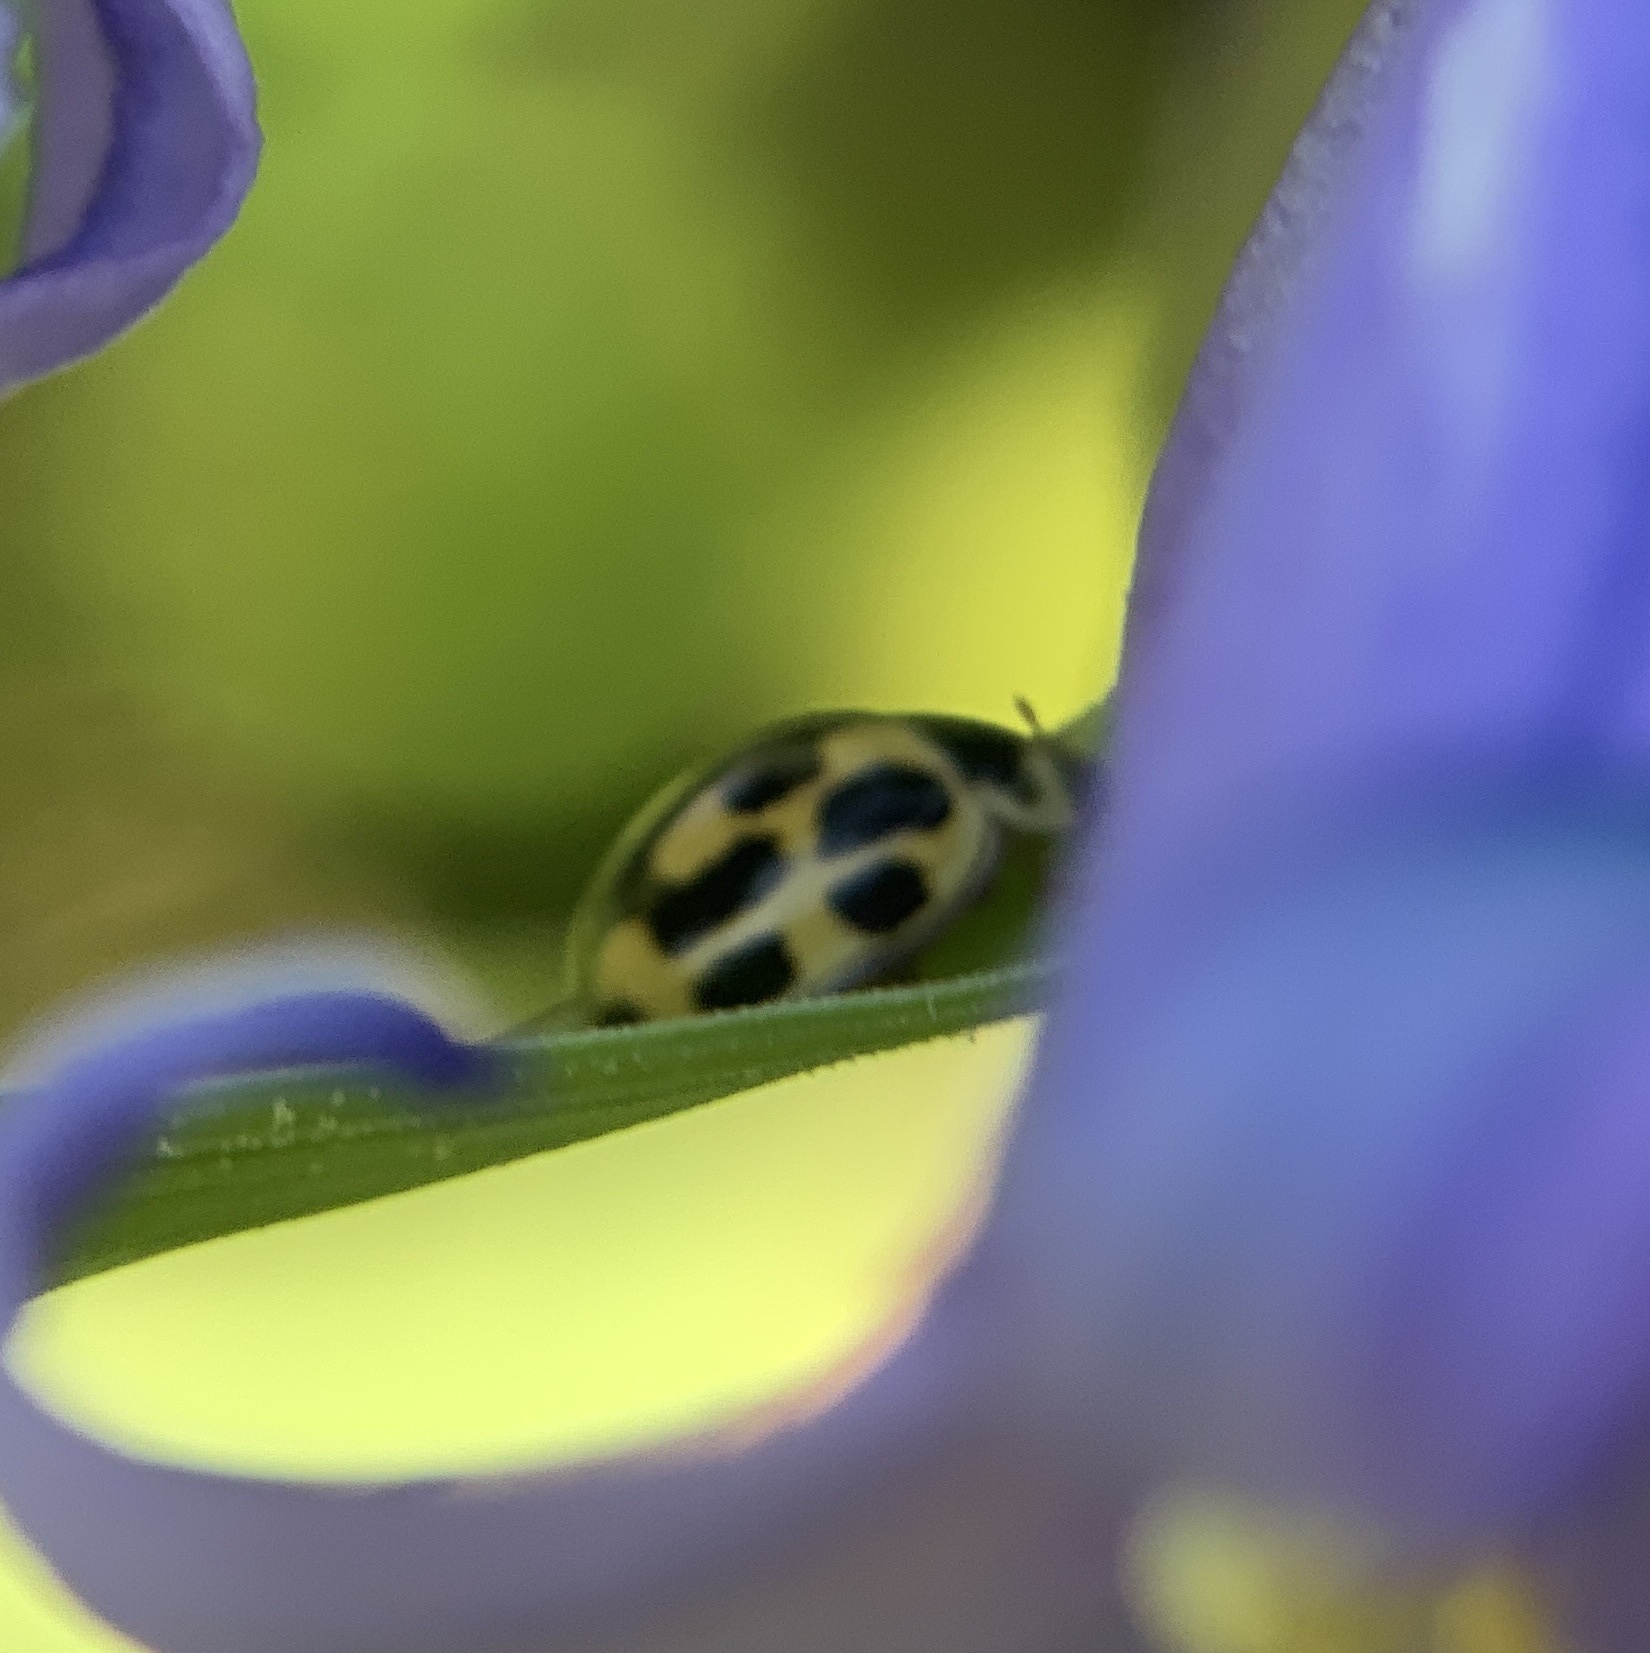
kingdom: Animalia
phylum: Arthropoda
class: Insecta
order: Coleoptera
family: Coccinellidae
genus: Propylaea
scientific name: Propylaea quatuordecimpunctata
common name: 14-spotted ladybird beetle
